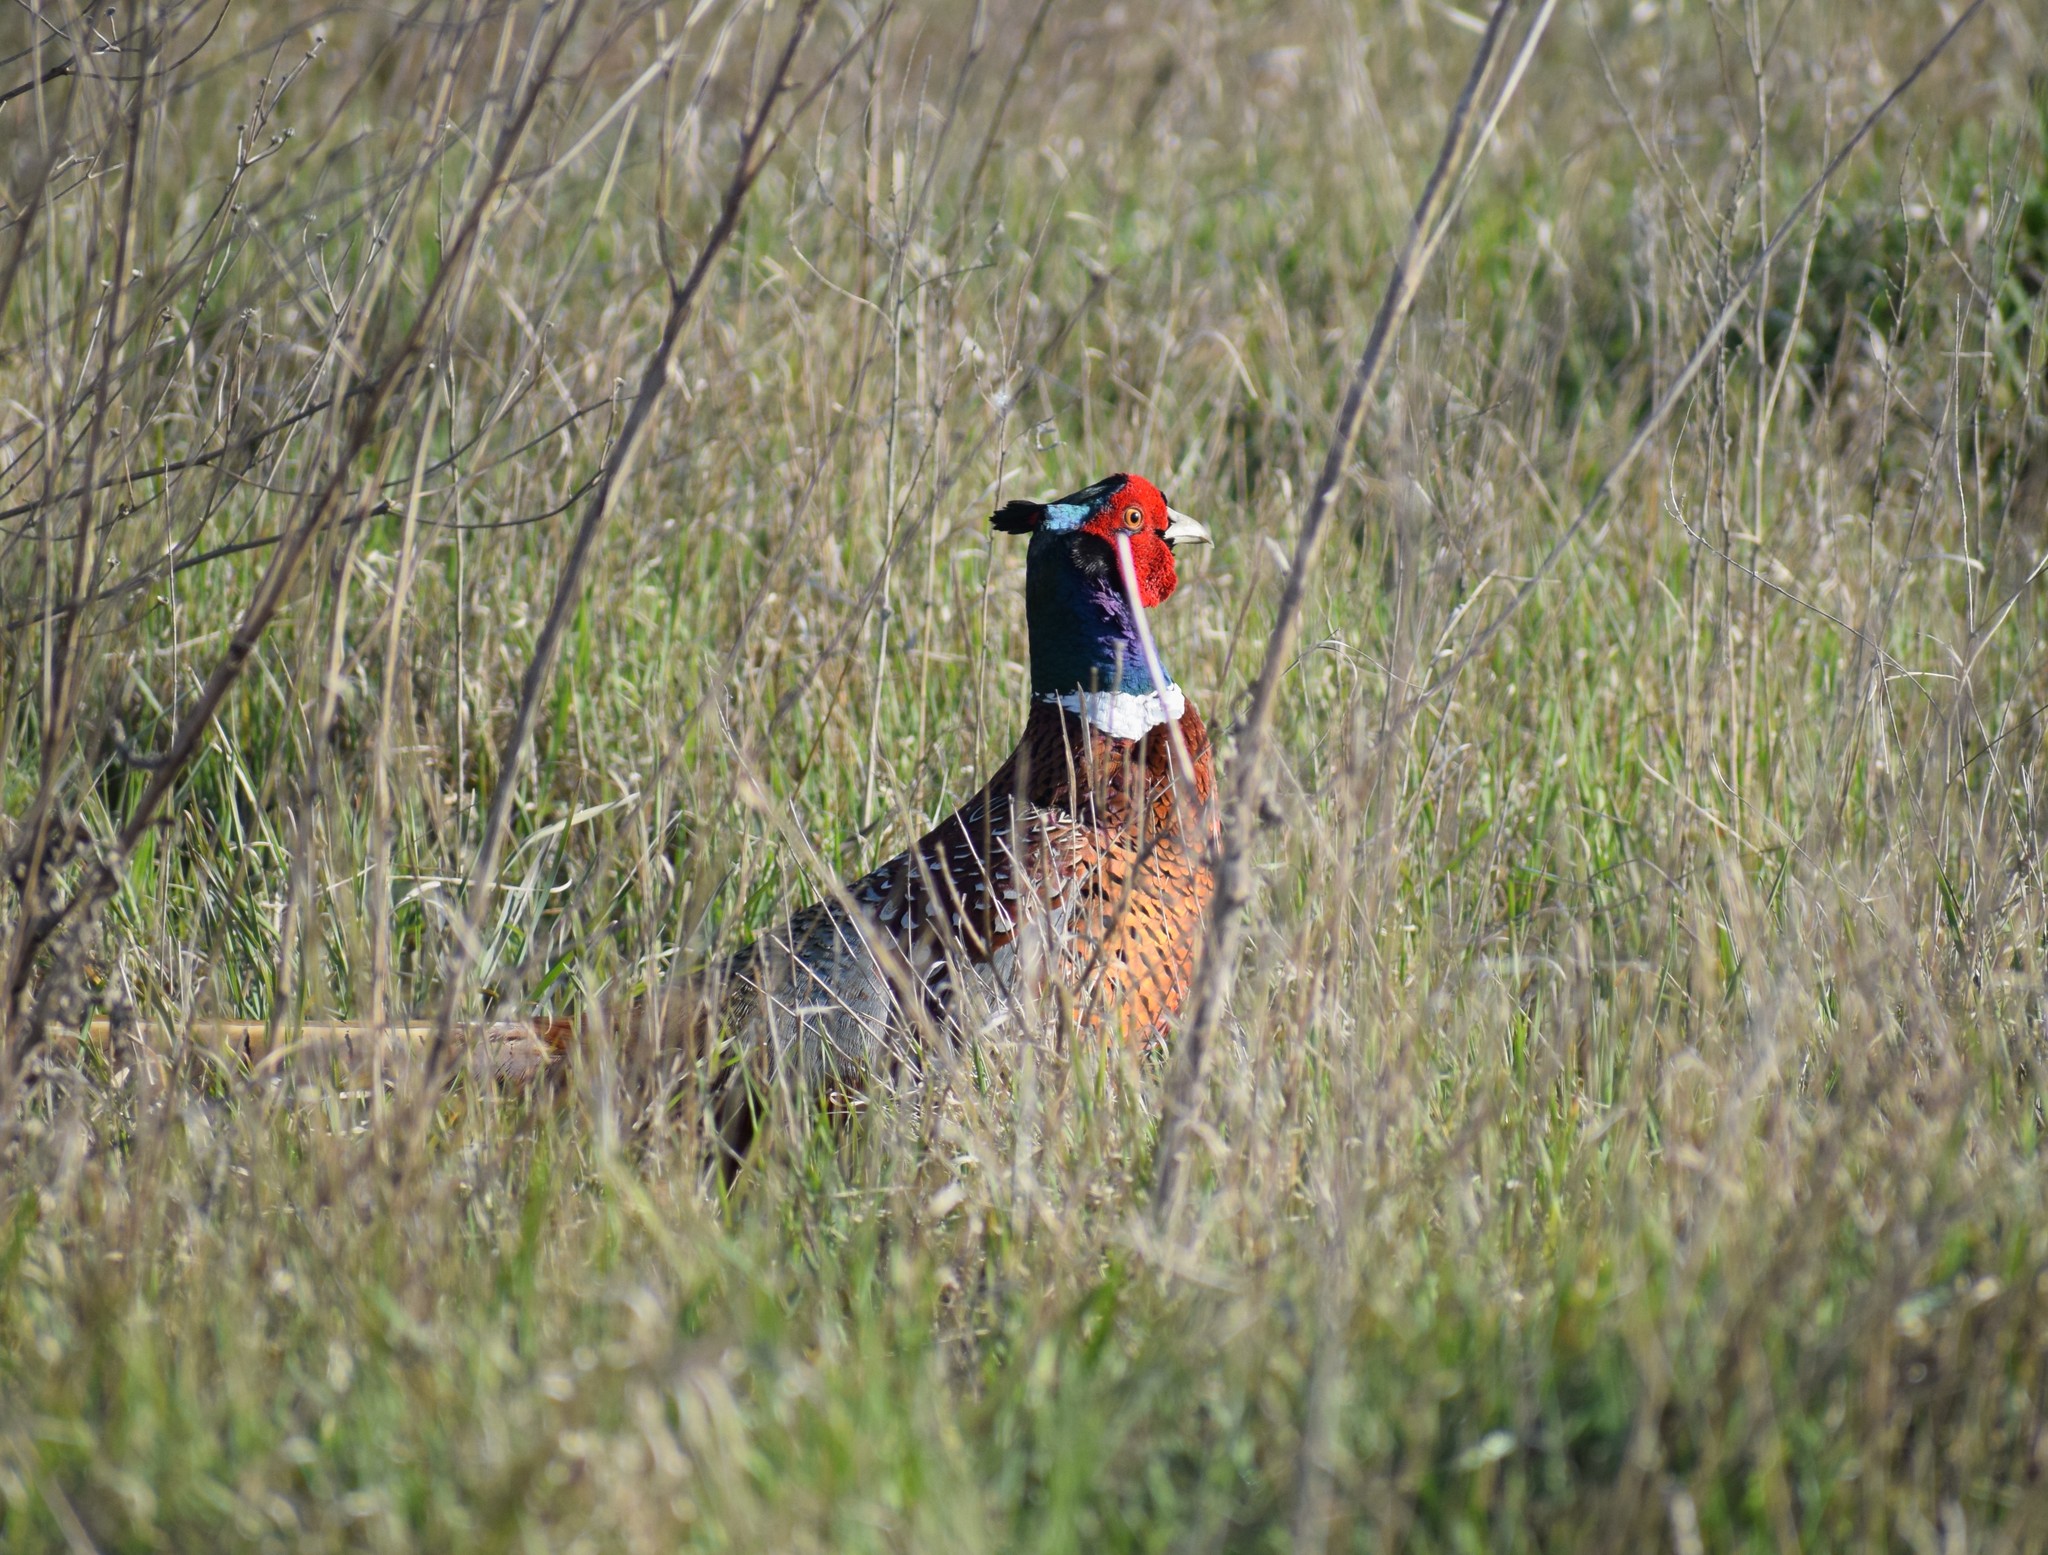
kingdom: Animalia
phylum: Chordata
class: Aves
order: Galliformes
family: Phasianidae
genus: Phasianus
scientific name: Phasianus colchicus
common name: Common pheasant
